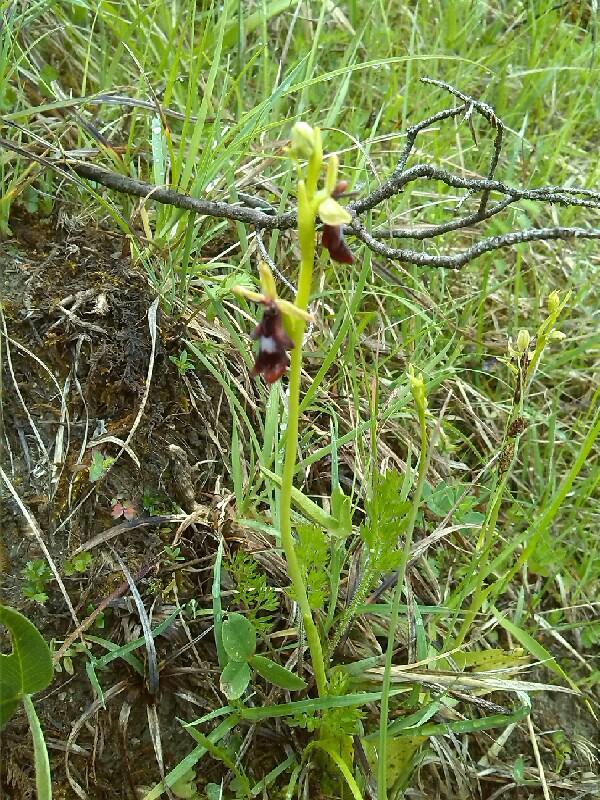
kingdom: Plantae
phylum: Tracheophyta
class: Liliopsida
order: Asparagales
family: Orchidaceae
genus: Ophrys
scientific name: Ophrys insectifera
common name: Fly orchid
